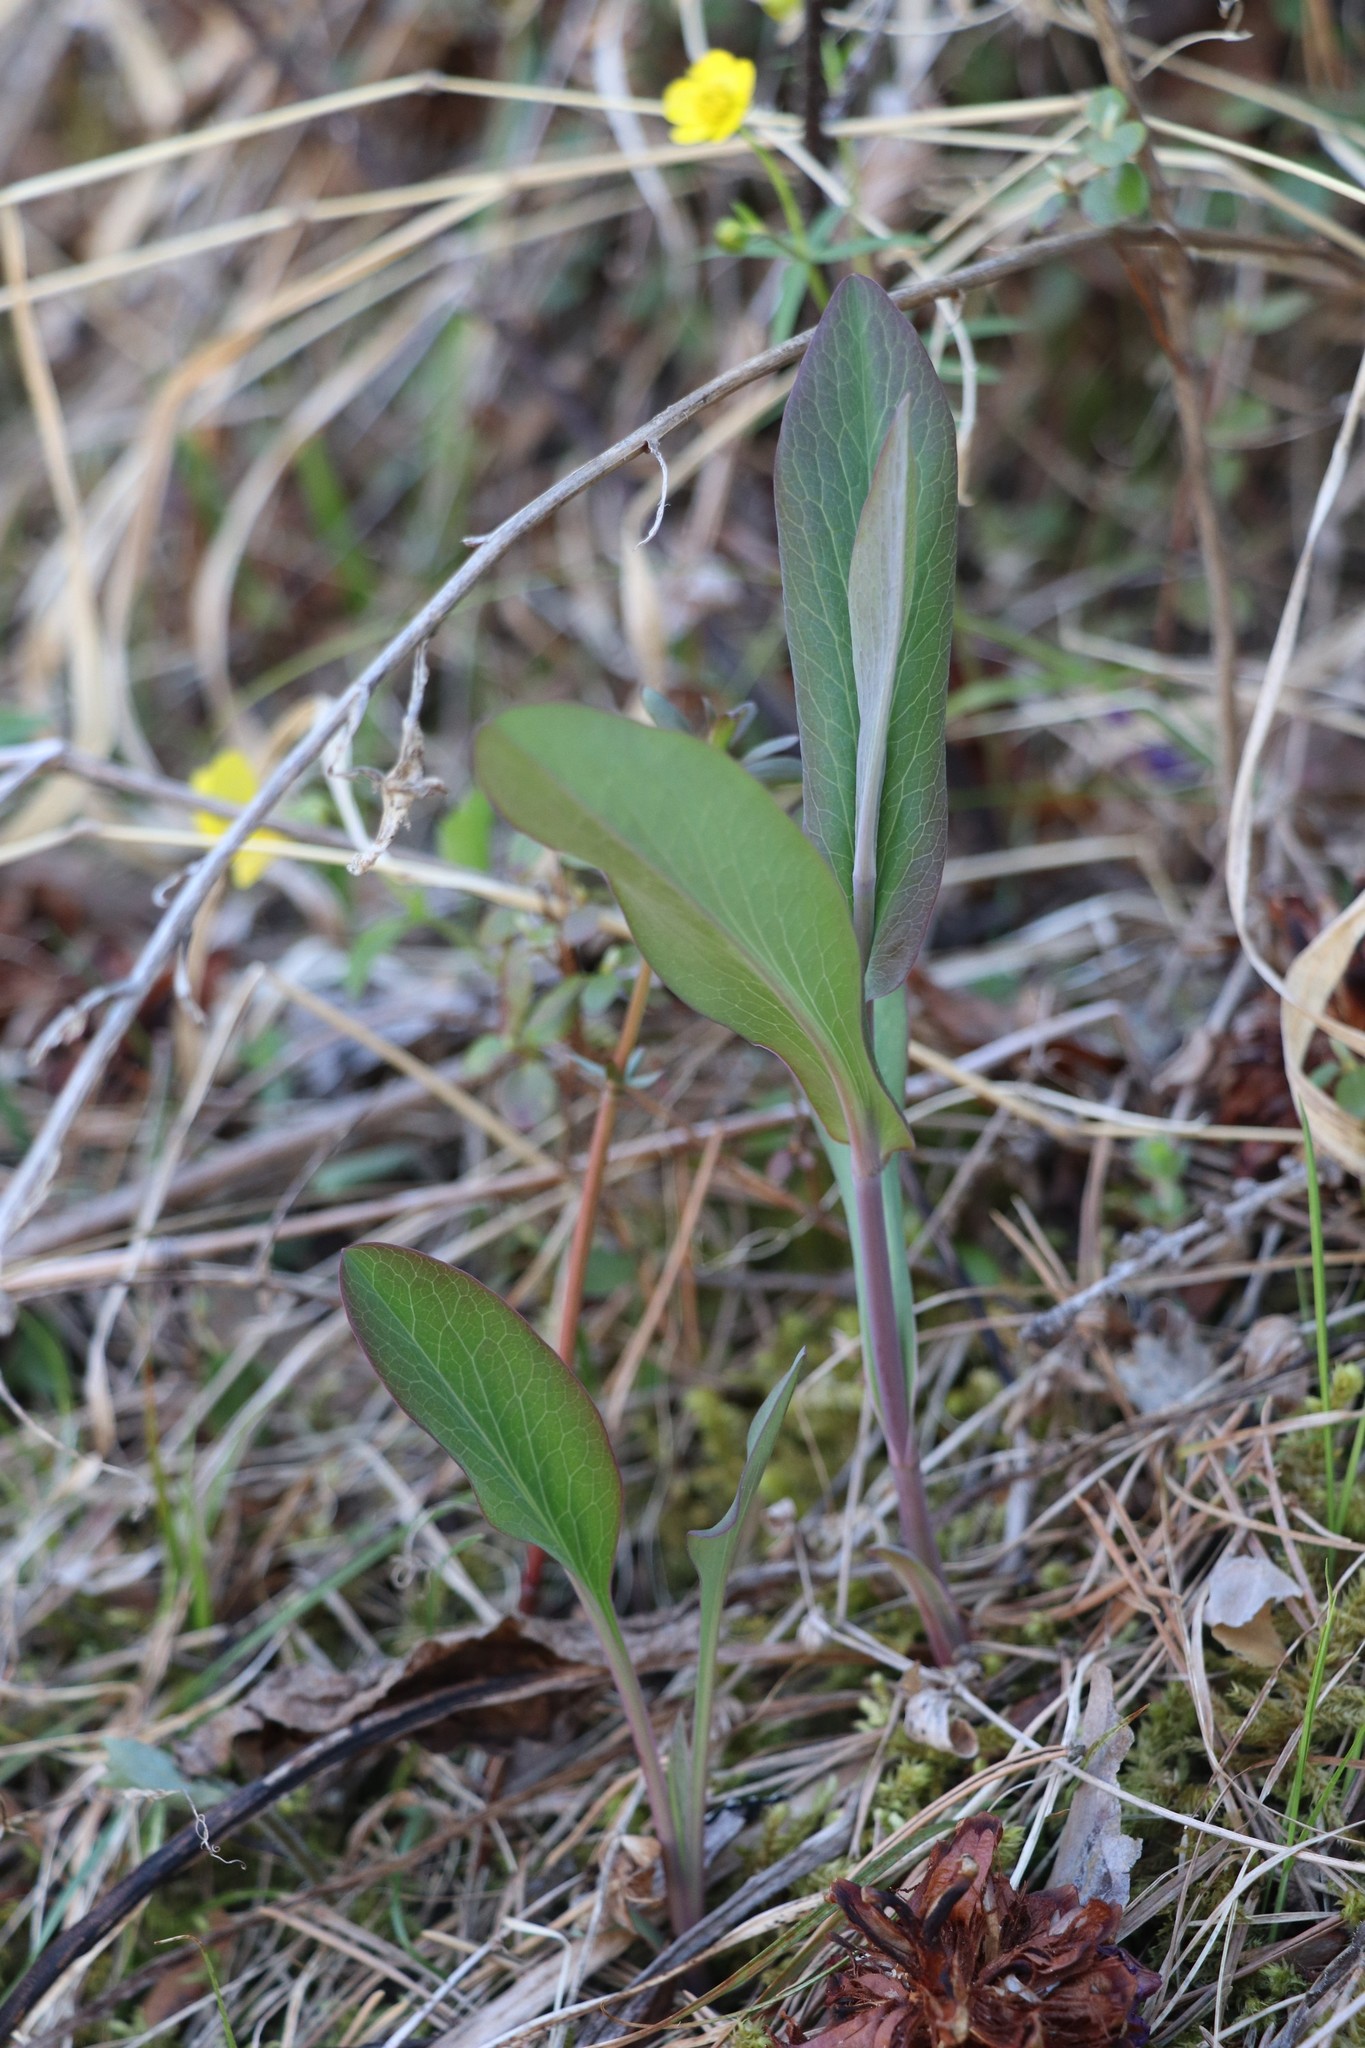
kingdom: Plantae
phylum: Tracheophyta
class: Magnoliopsida
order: Apiales
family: Apiaceae
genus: Bupleurum
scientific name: Bupleurum aureum
